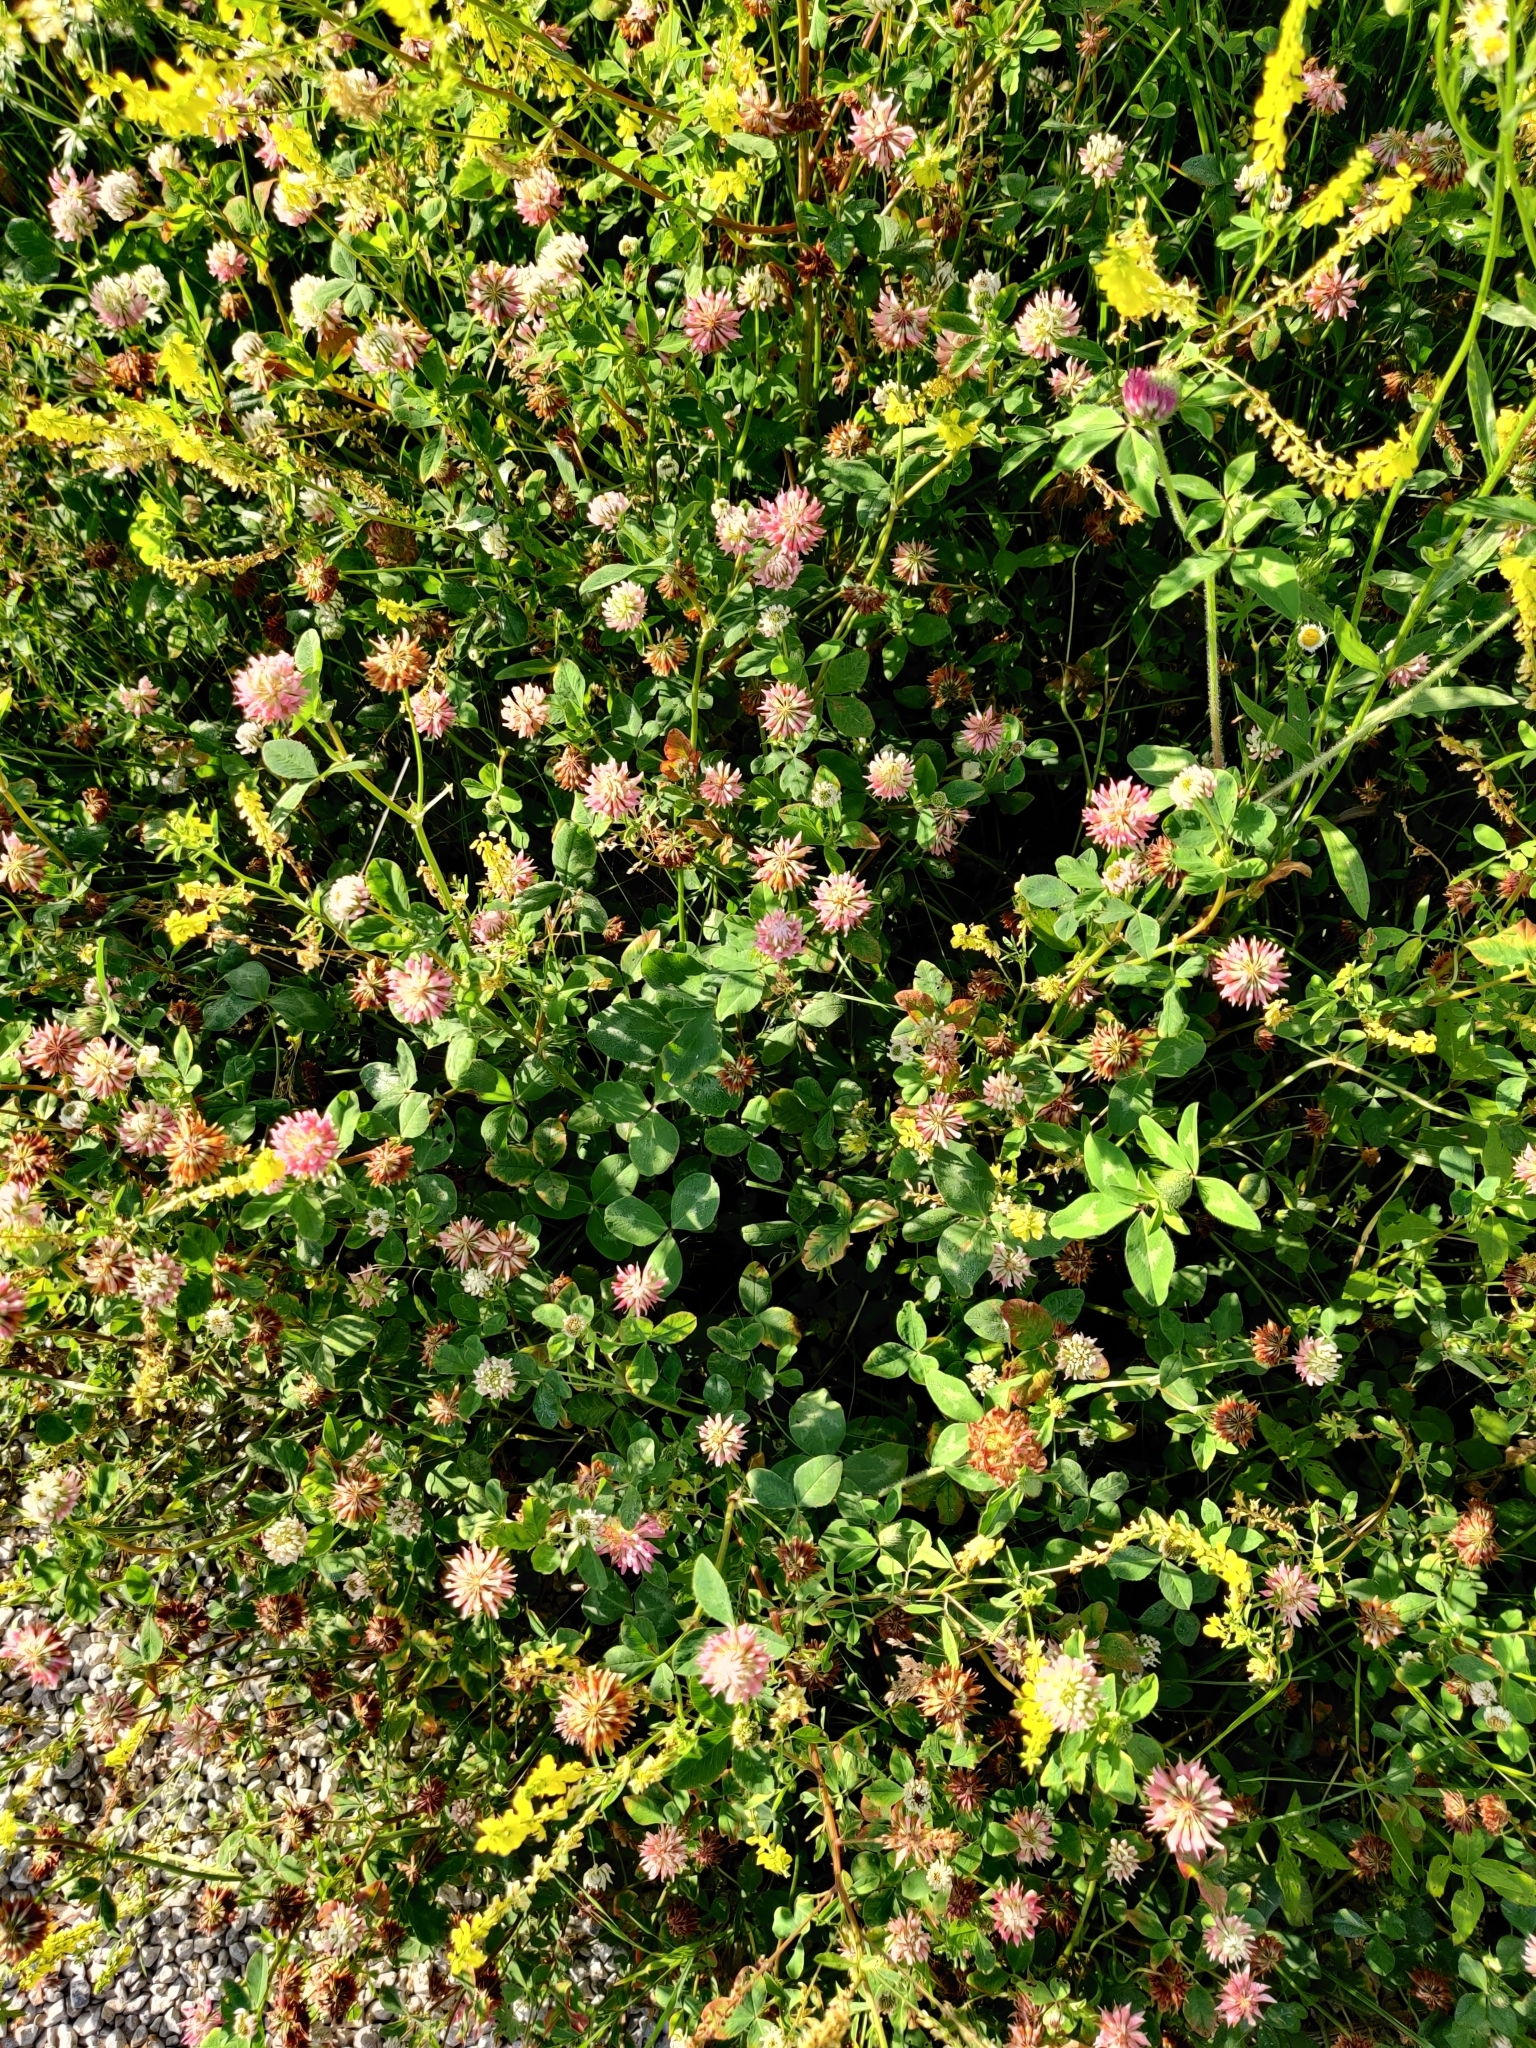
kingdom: Plantae
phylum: Tracheophyta
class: Magnoliopsida
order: Fabales
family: Fabaceae
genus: Trifolium
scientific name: Trifolium hybridum
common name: Alsike clover
